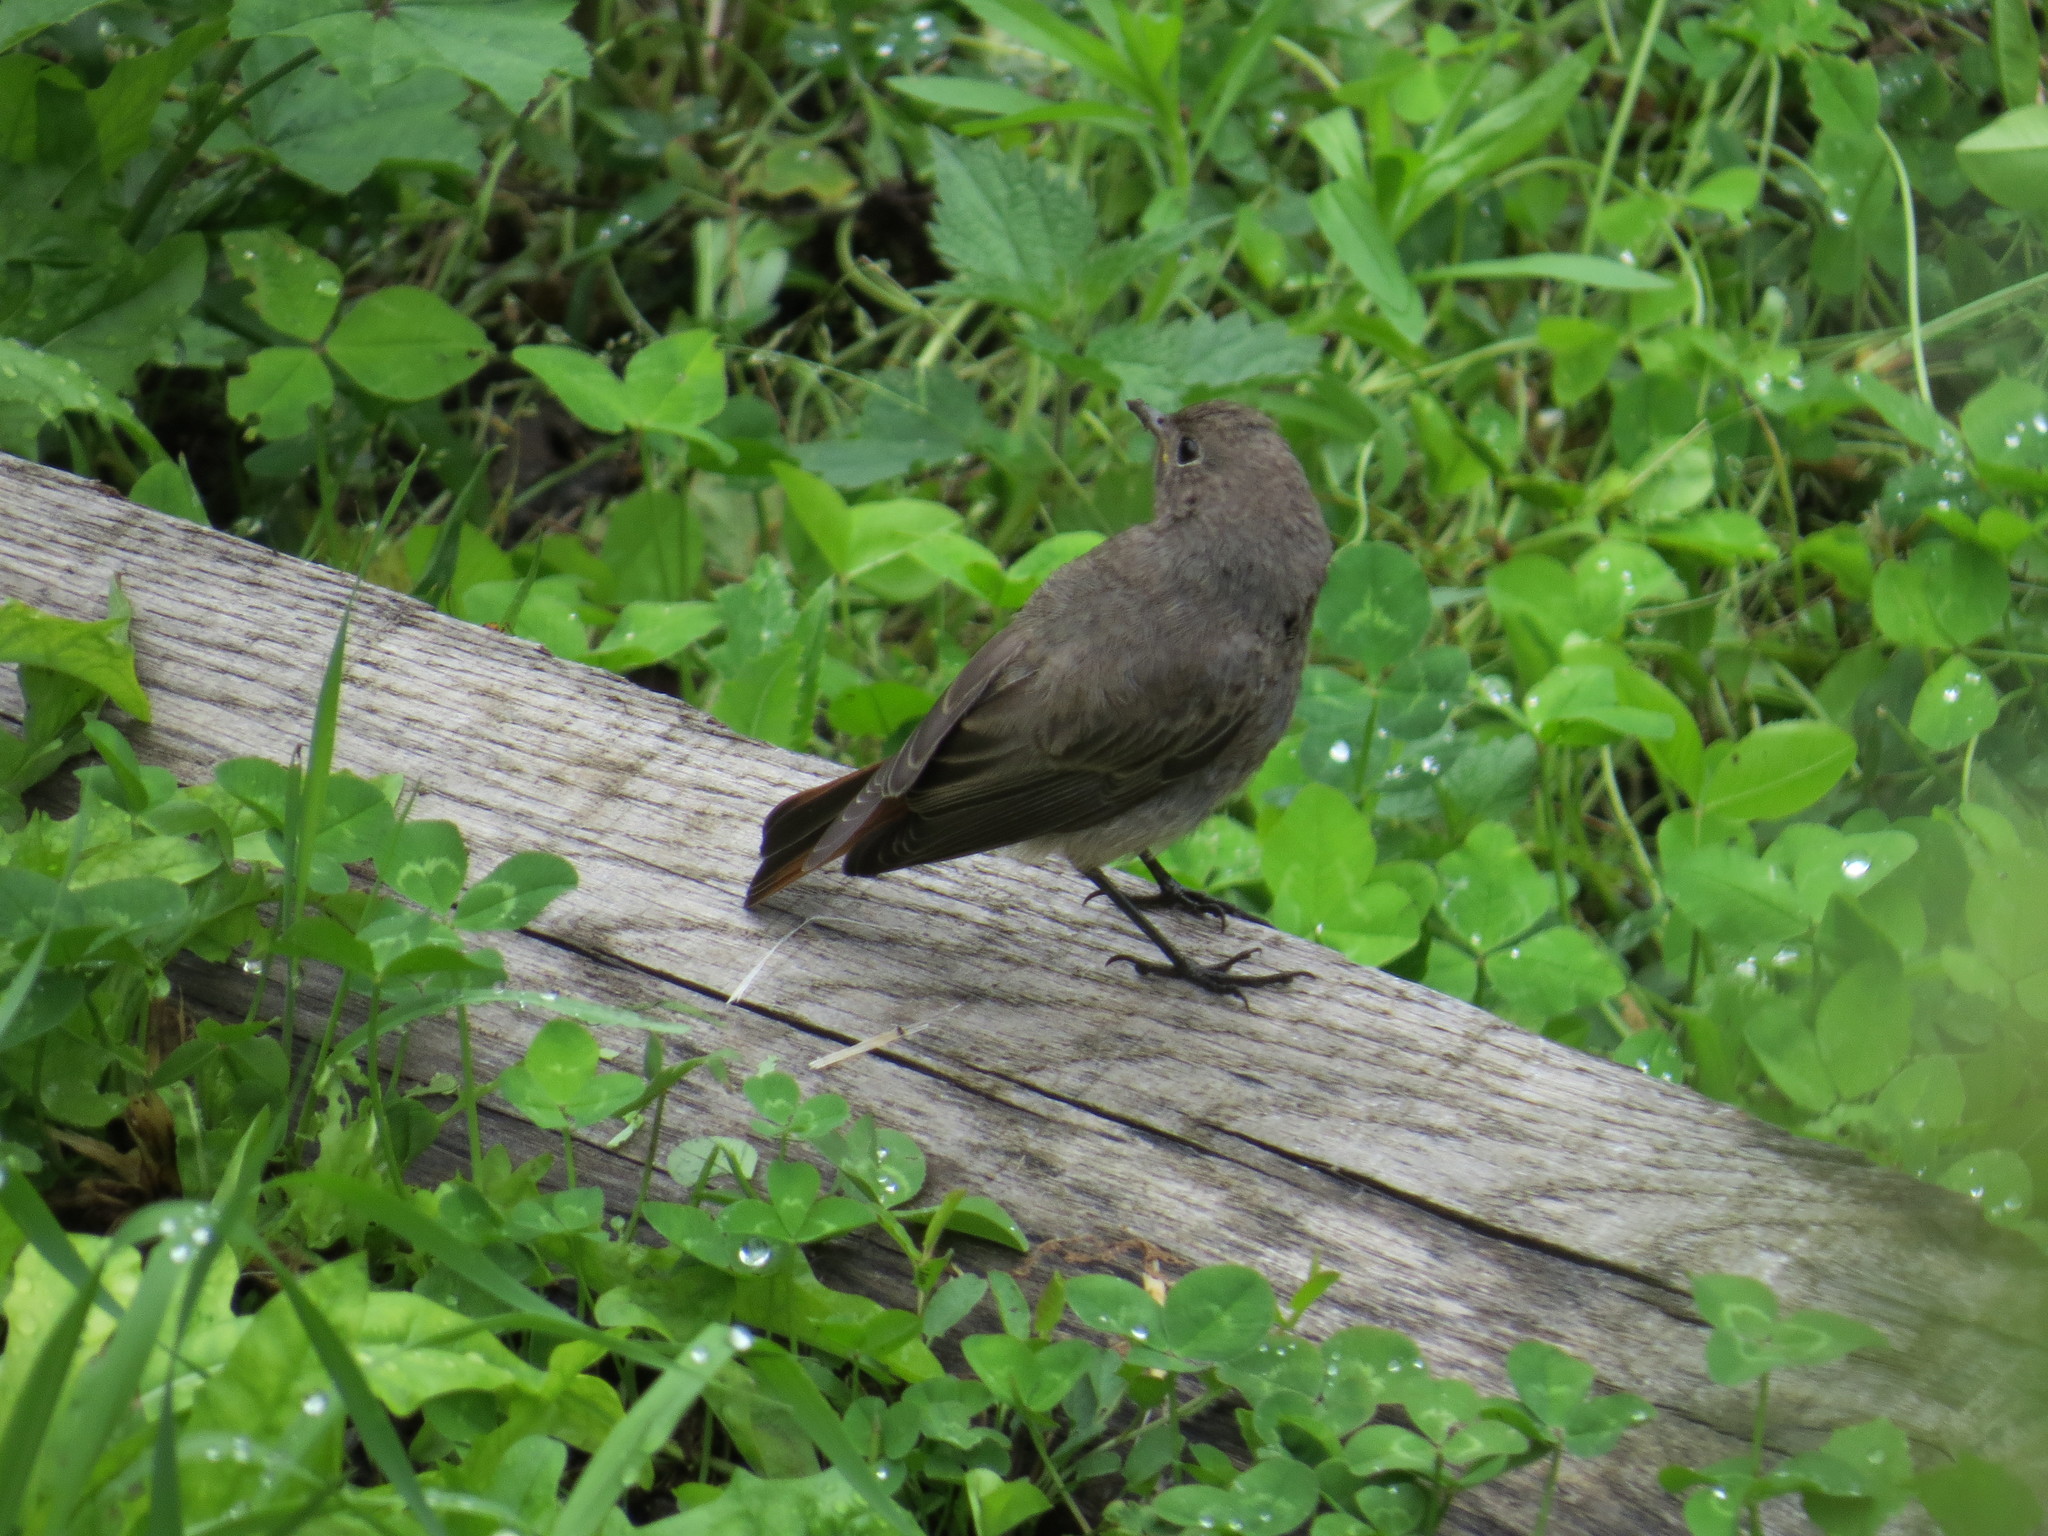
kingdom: Animalia
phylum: Chordata
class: Aves
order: Passeriformes
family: Muscicapidae
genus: Phoenicurus
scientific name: Phoenicurus ochruros
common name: Black redstart
